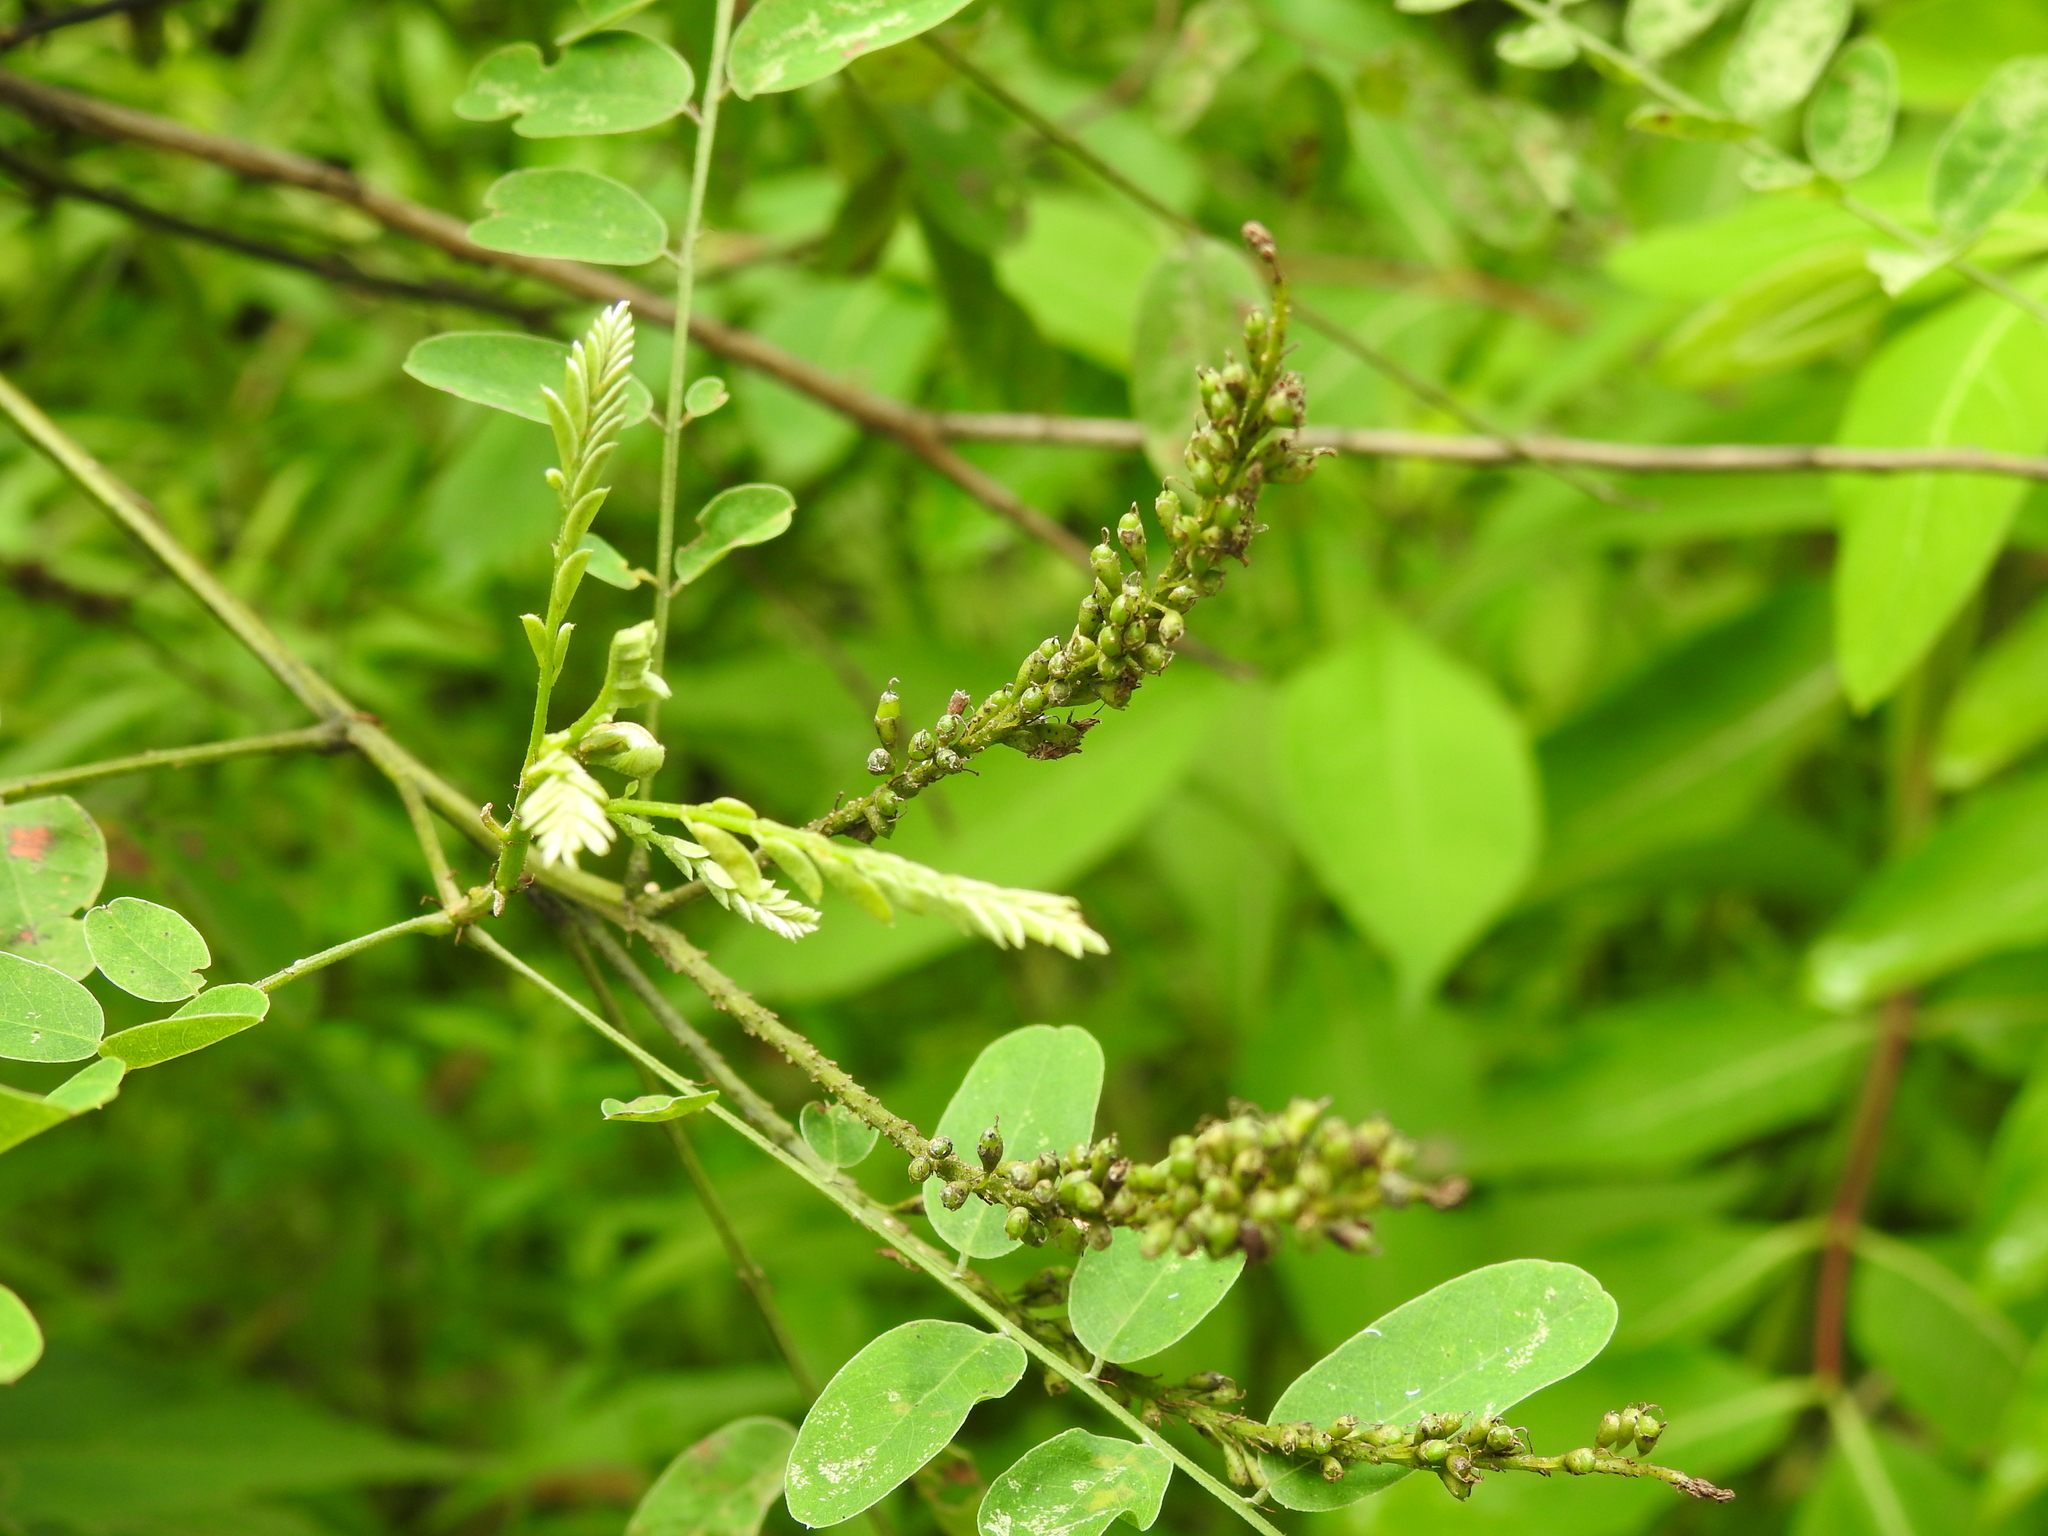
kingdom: Plantae
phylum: Tracheophyta
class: Magnoliopsida
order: Fabales
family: Fabaceae
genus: Amorpha
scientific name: Amorpha fruticosa
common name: False indigo
